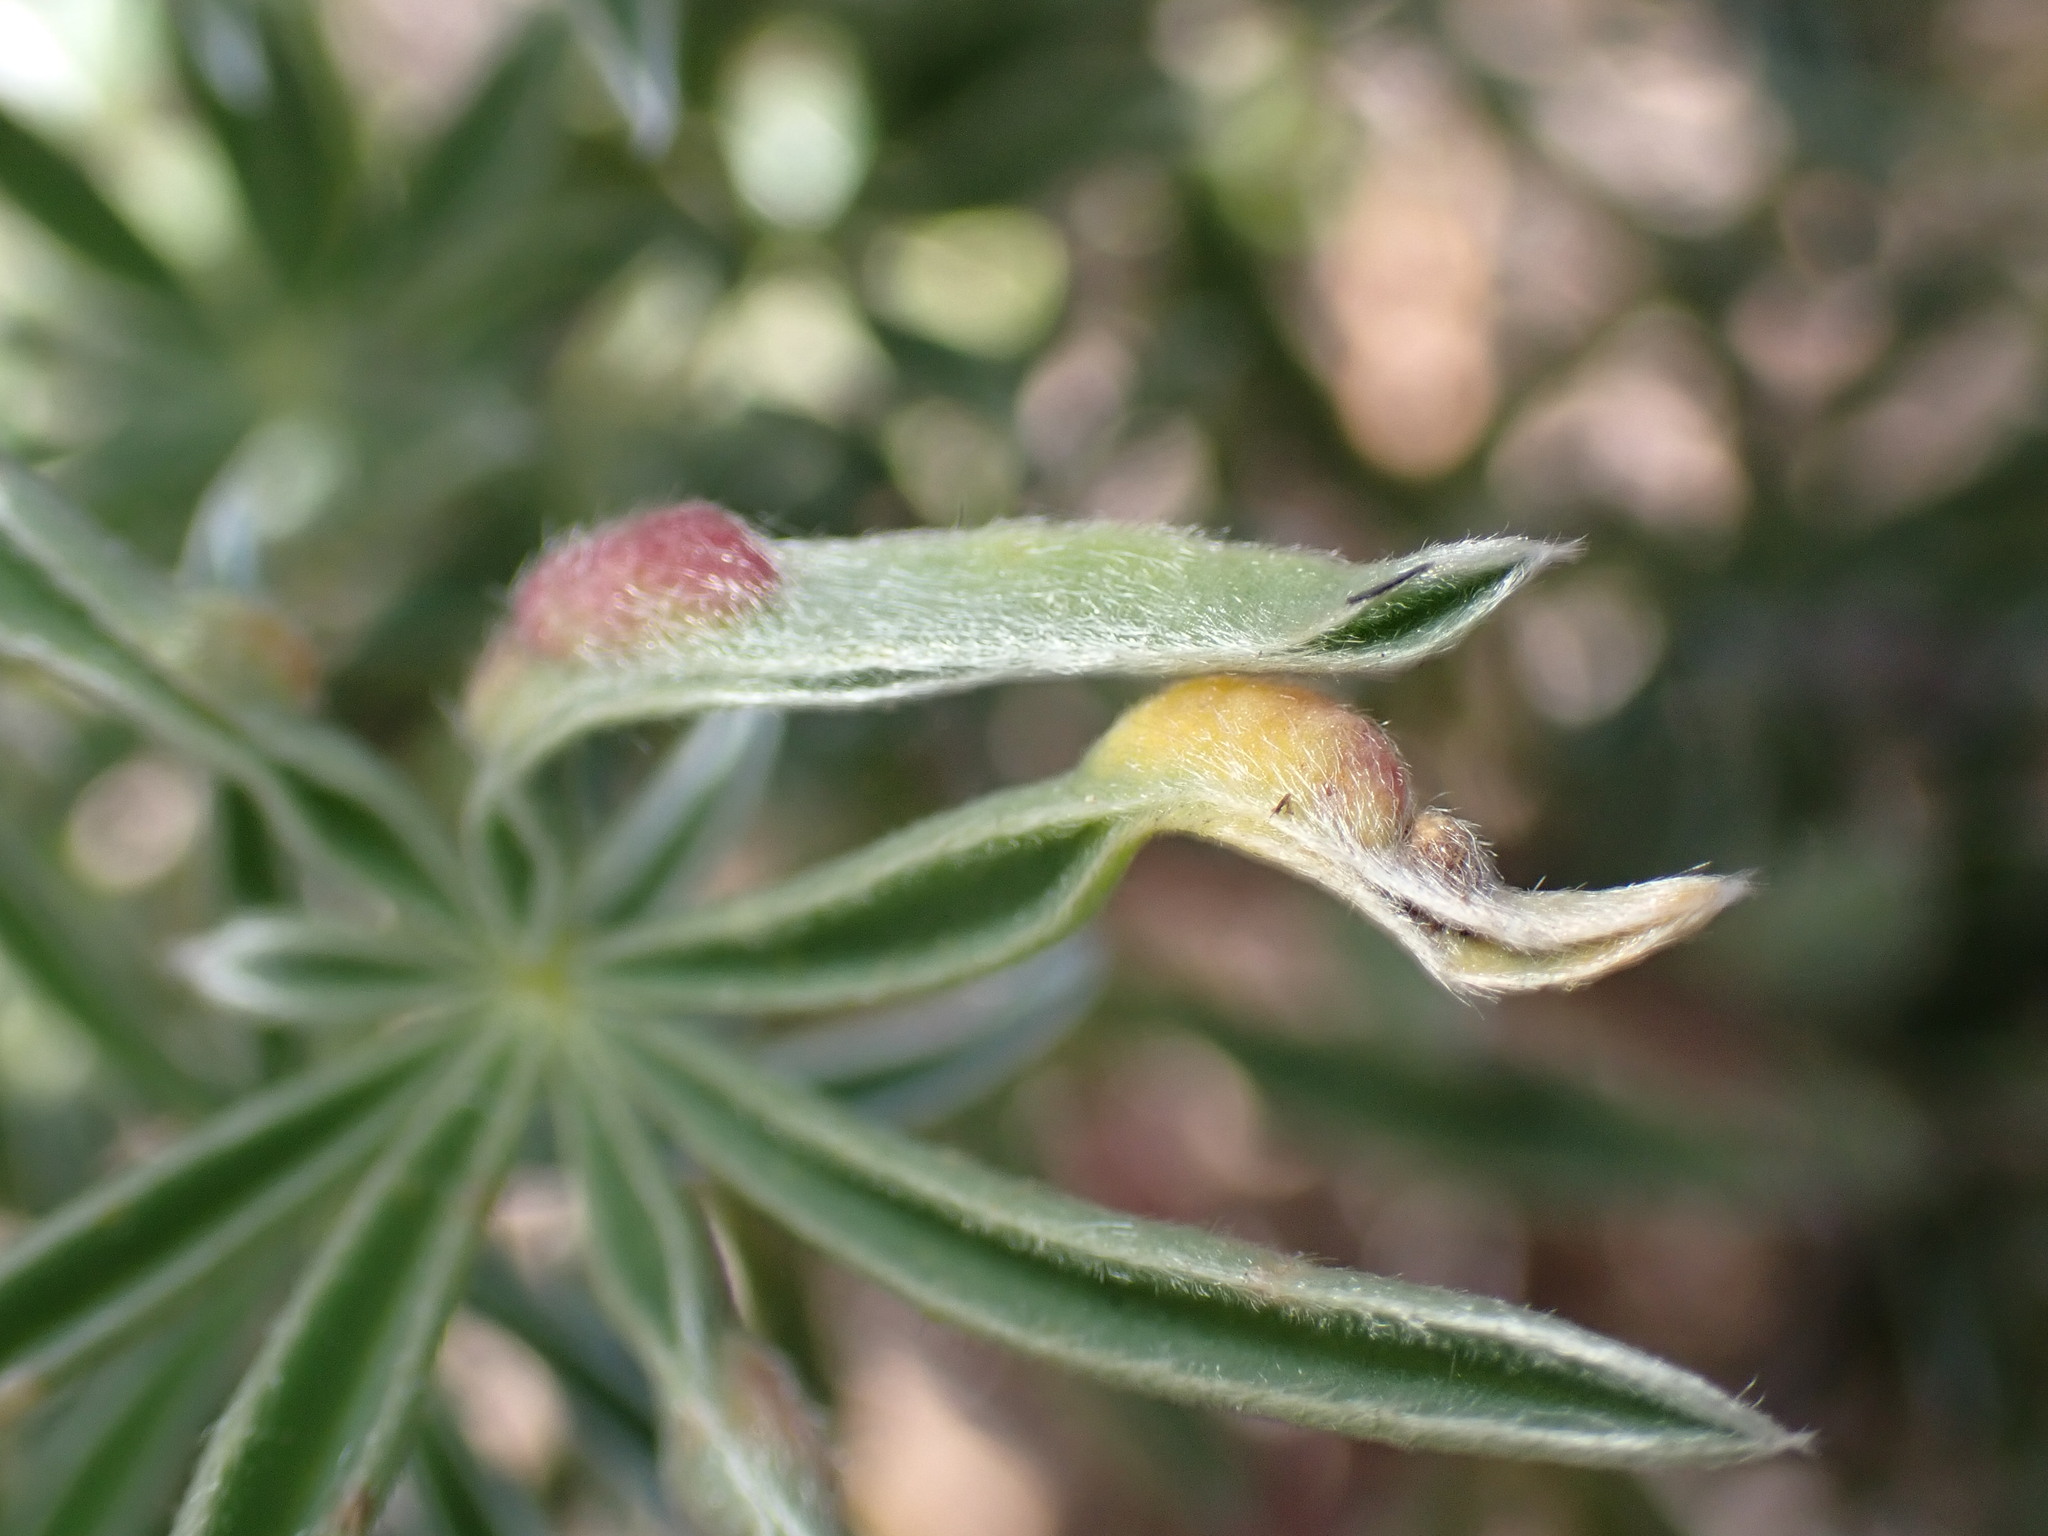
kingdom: Animalia
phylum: Arthropoda
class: Insecta
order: Diptera
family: Cecidomyiidae
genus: Dasineura
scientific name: Dasineura lupinorum
